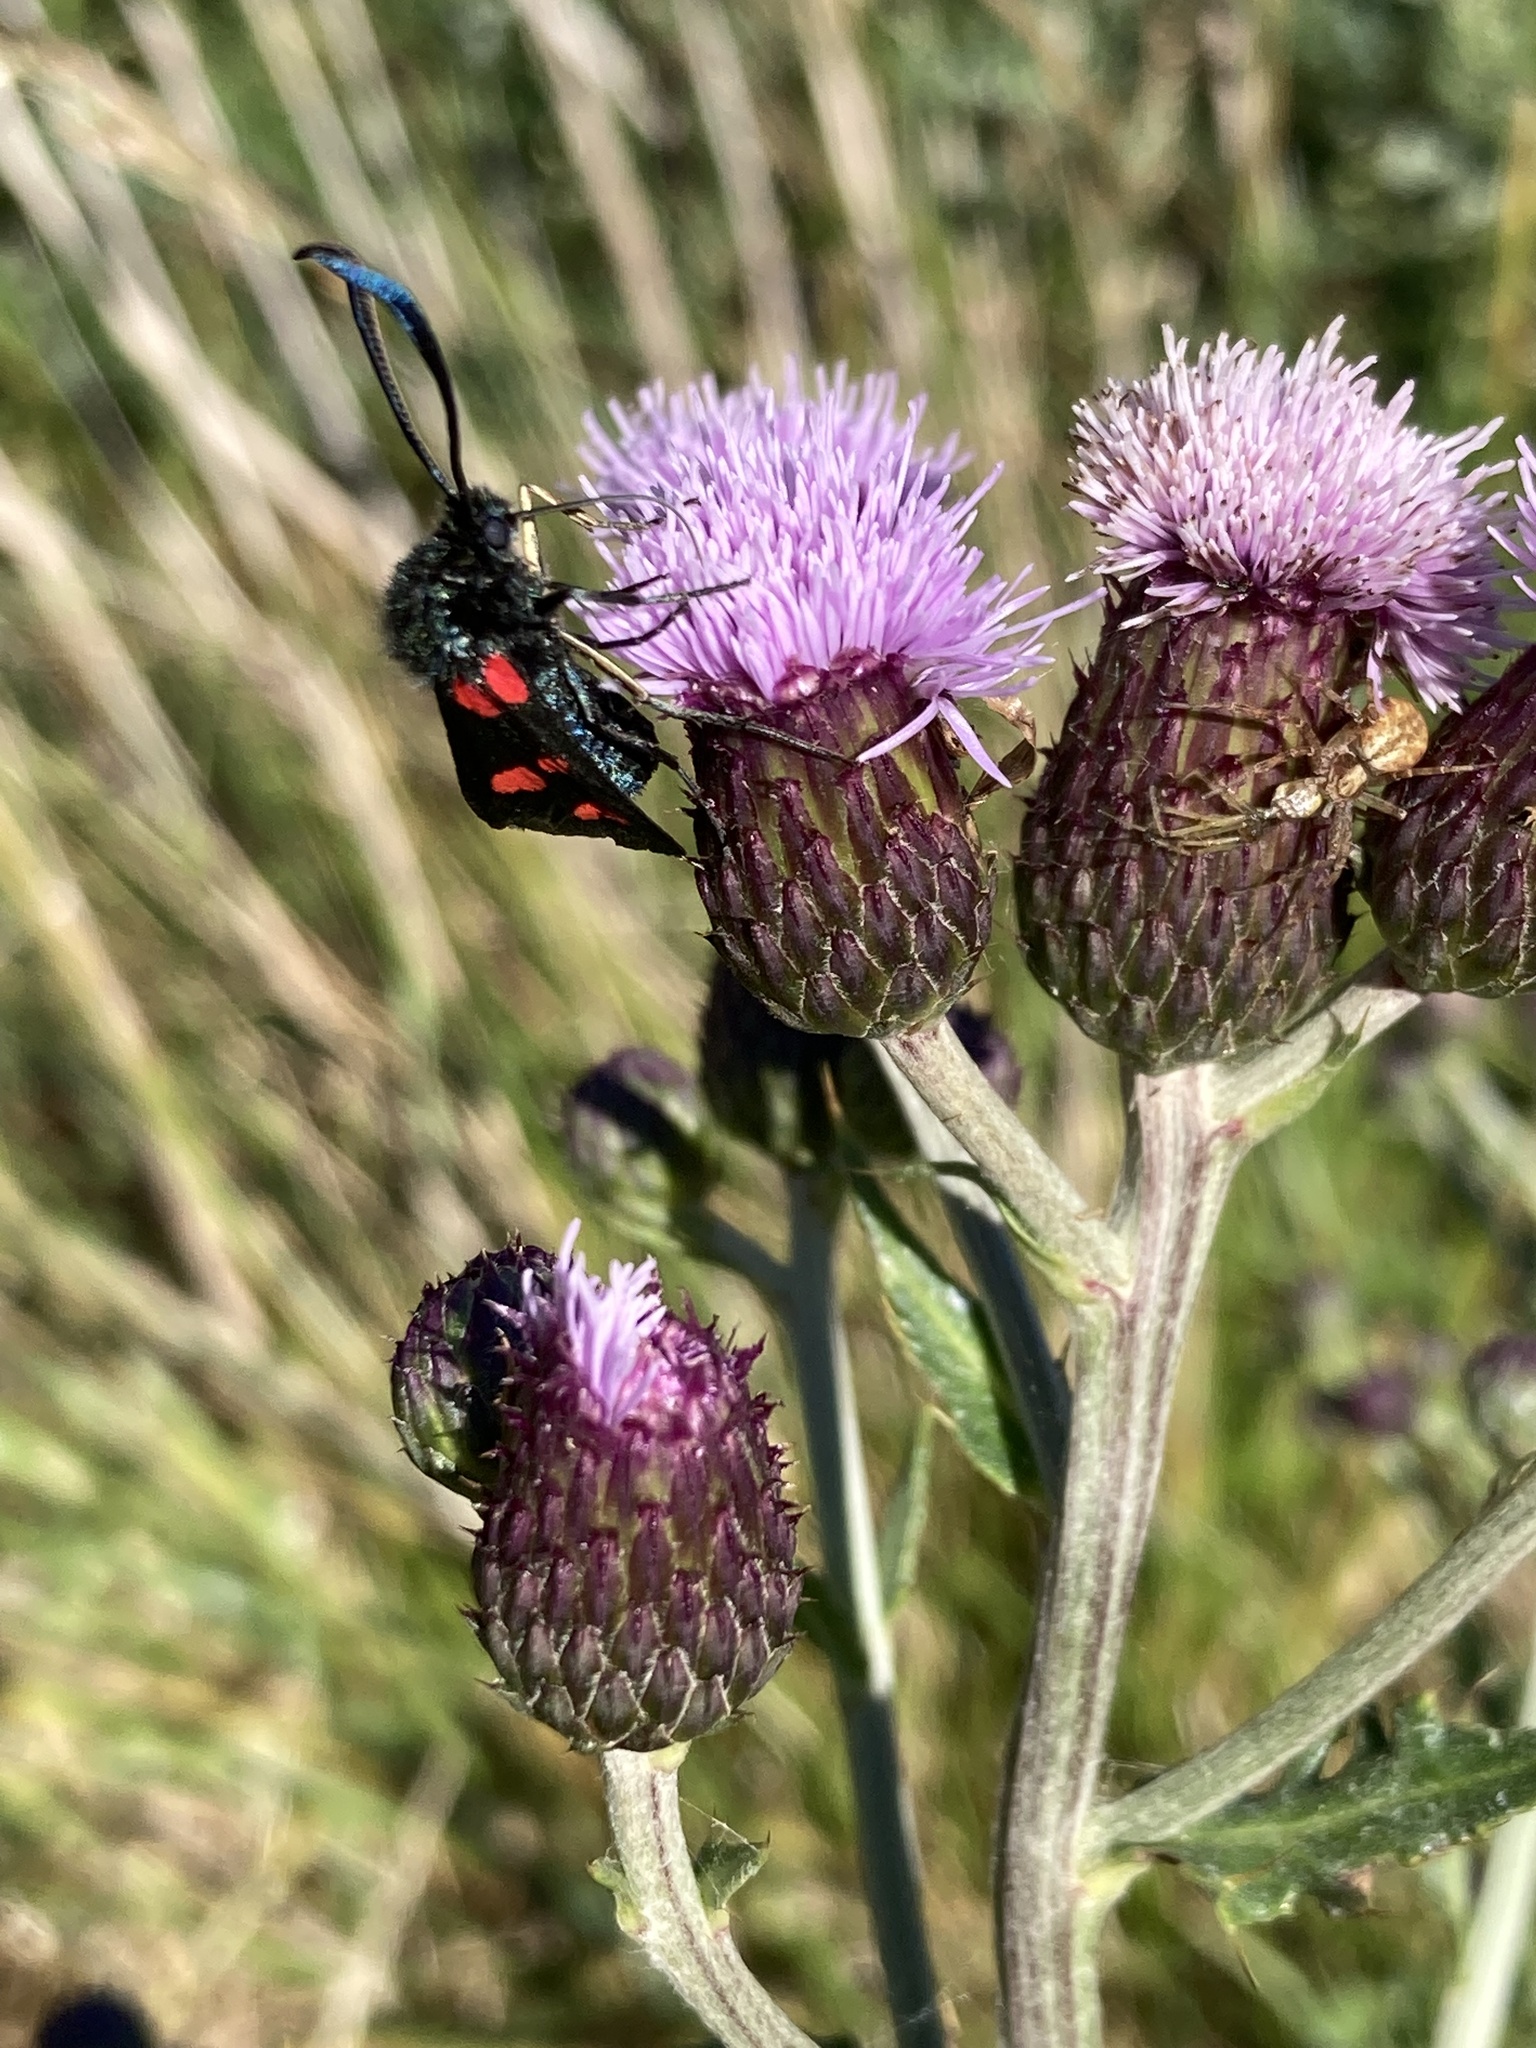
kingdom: Animalia
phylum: Arthropoda
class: Insecta
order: Lepidoptera
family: Zygaenidae
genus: Zygaena
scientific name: Zygaena lonicerae
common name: Narrow-bordered five-spot burnet
